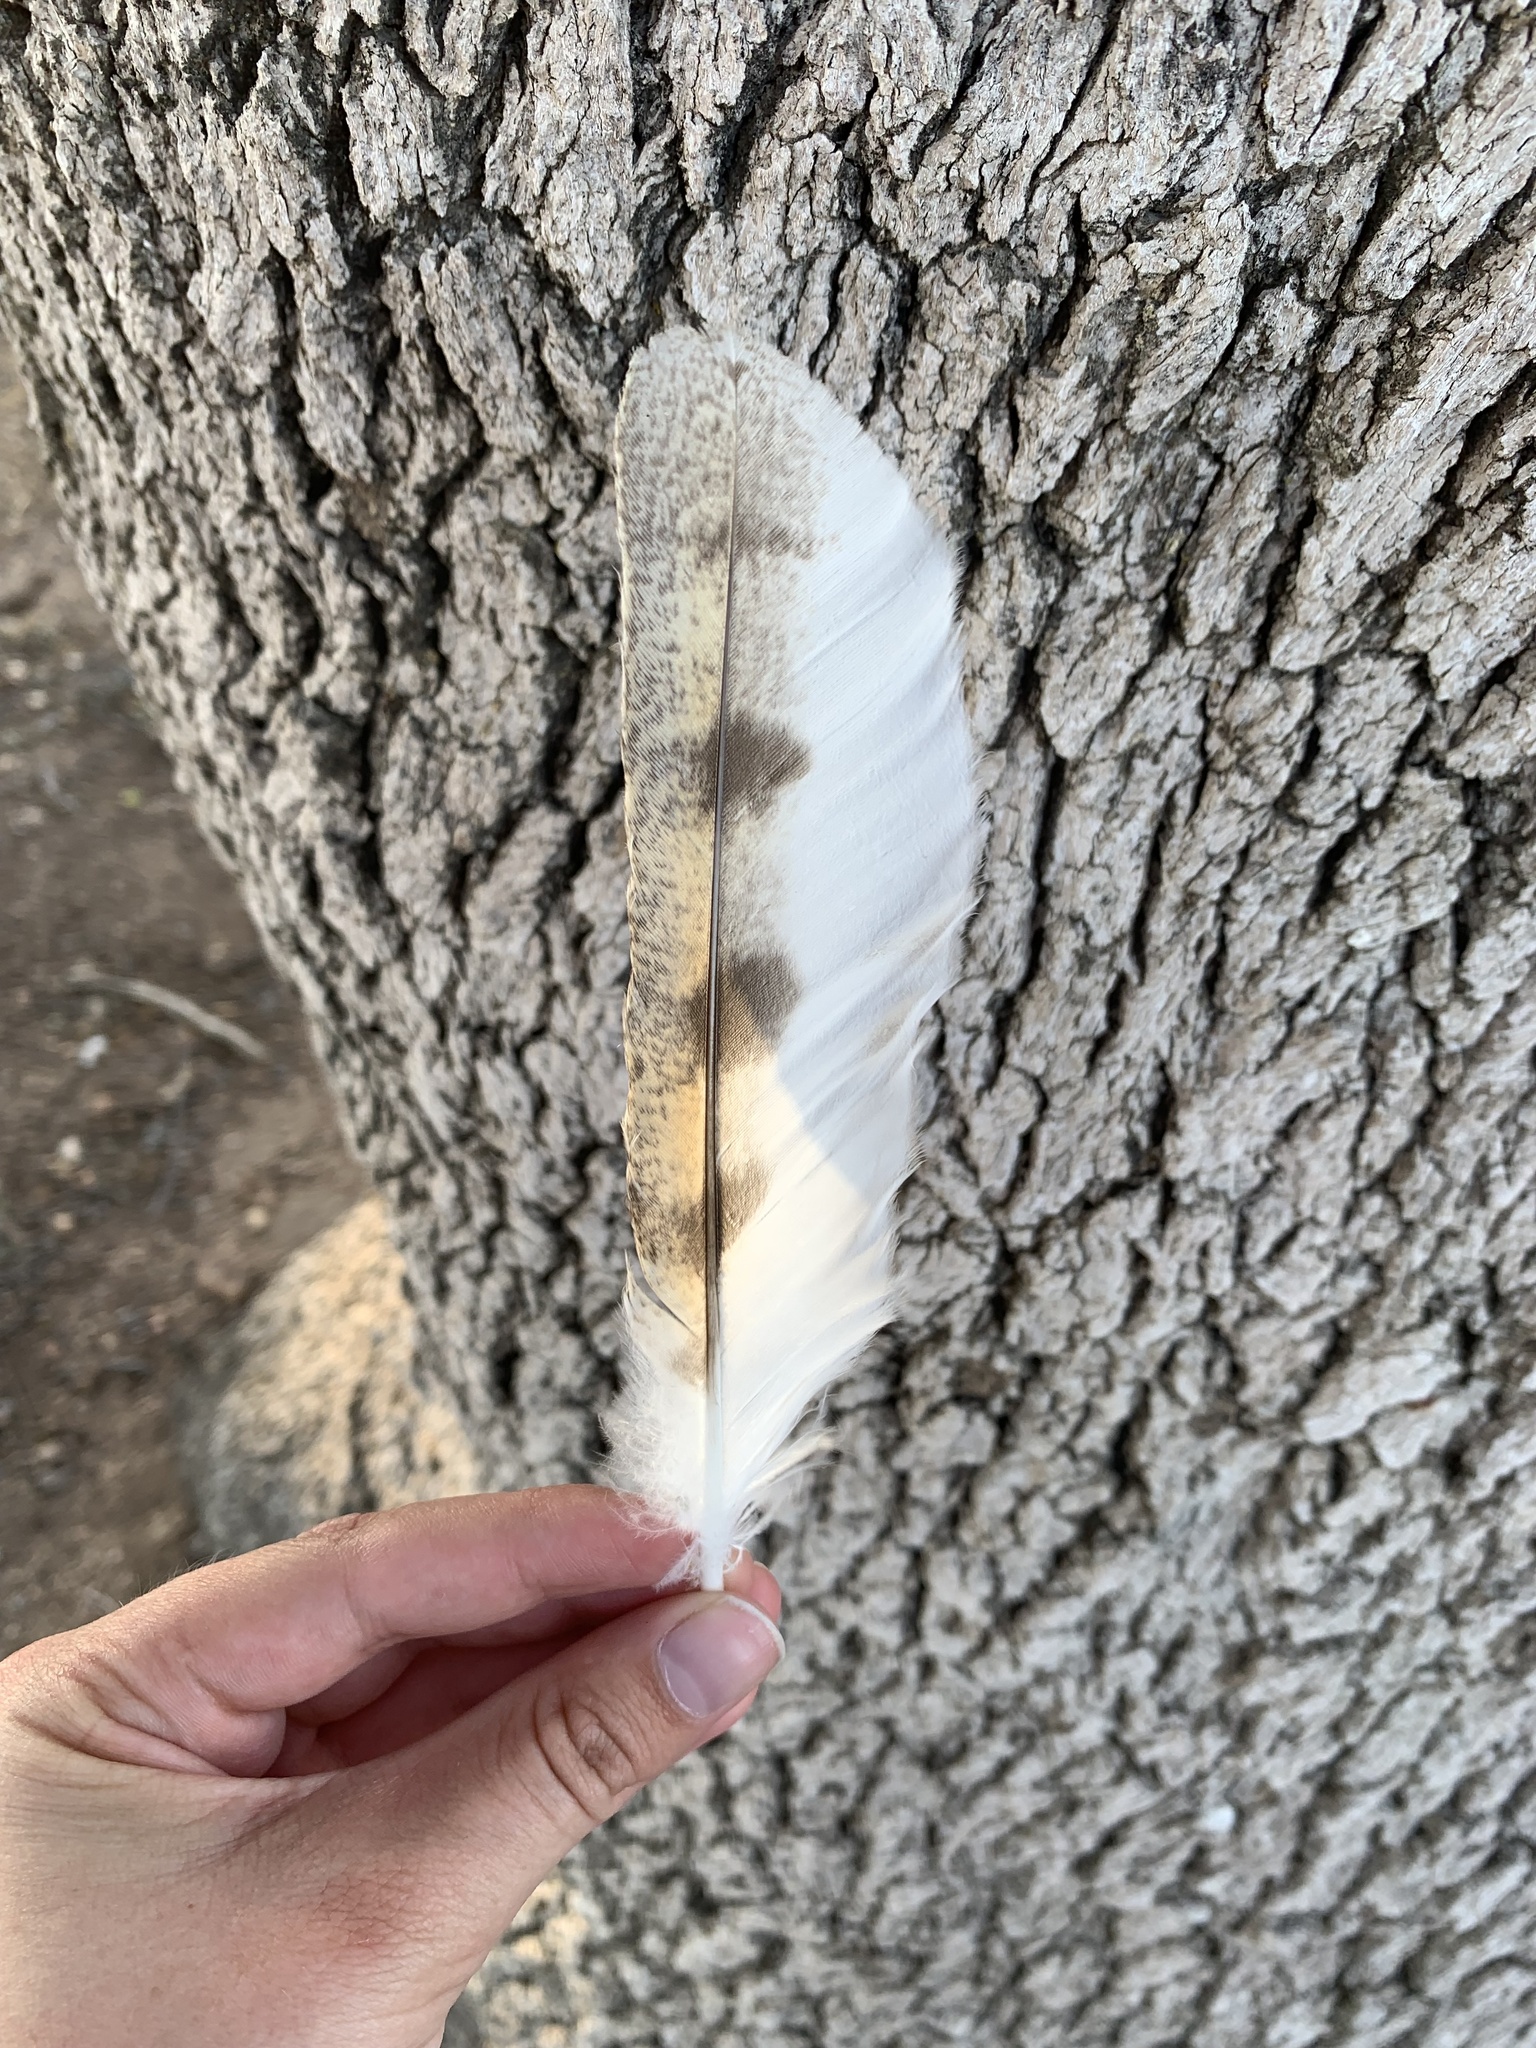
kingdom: Animalia
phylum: Chordata
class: Aves
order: Strigiformes
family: Tytonidae
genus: Tyto
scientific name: Tyto alba
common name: Barn owl
